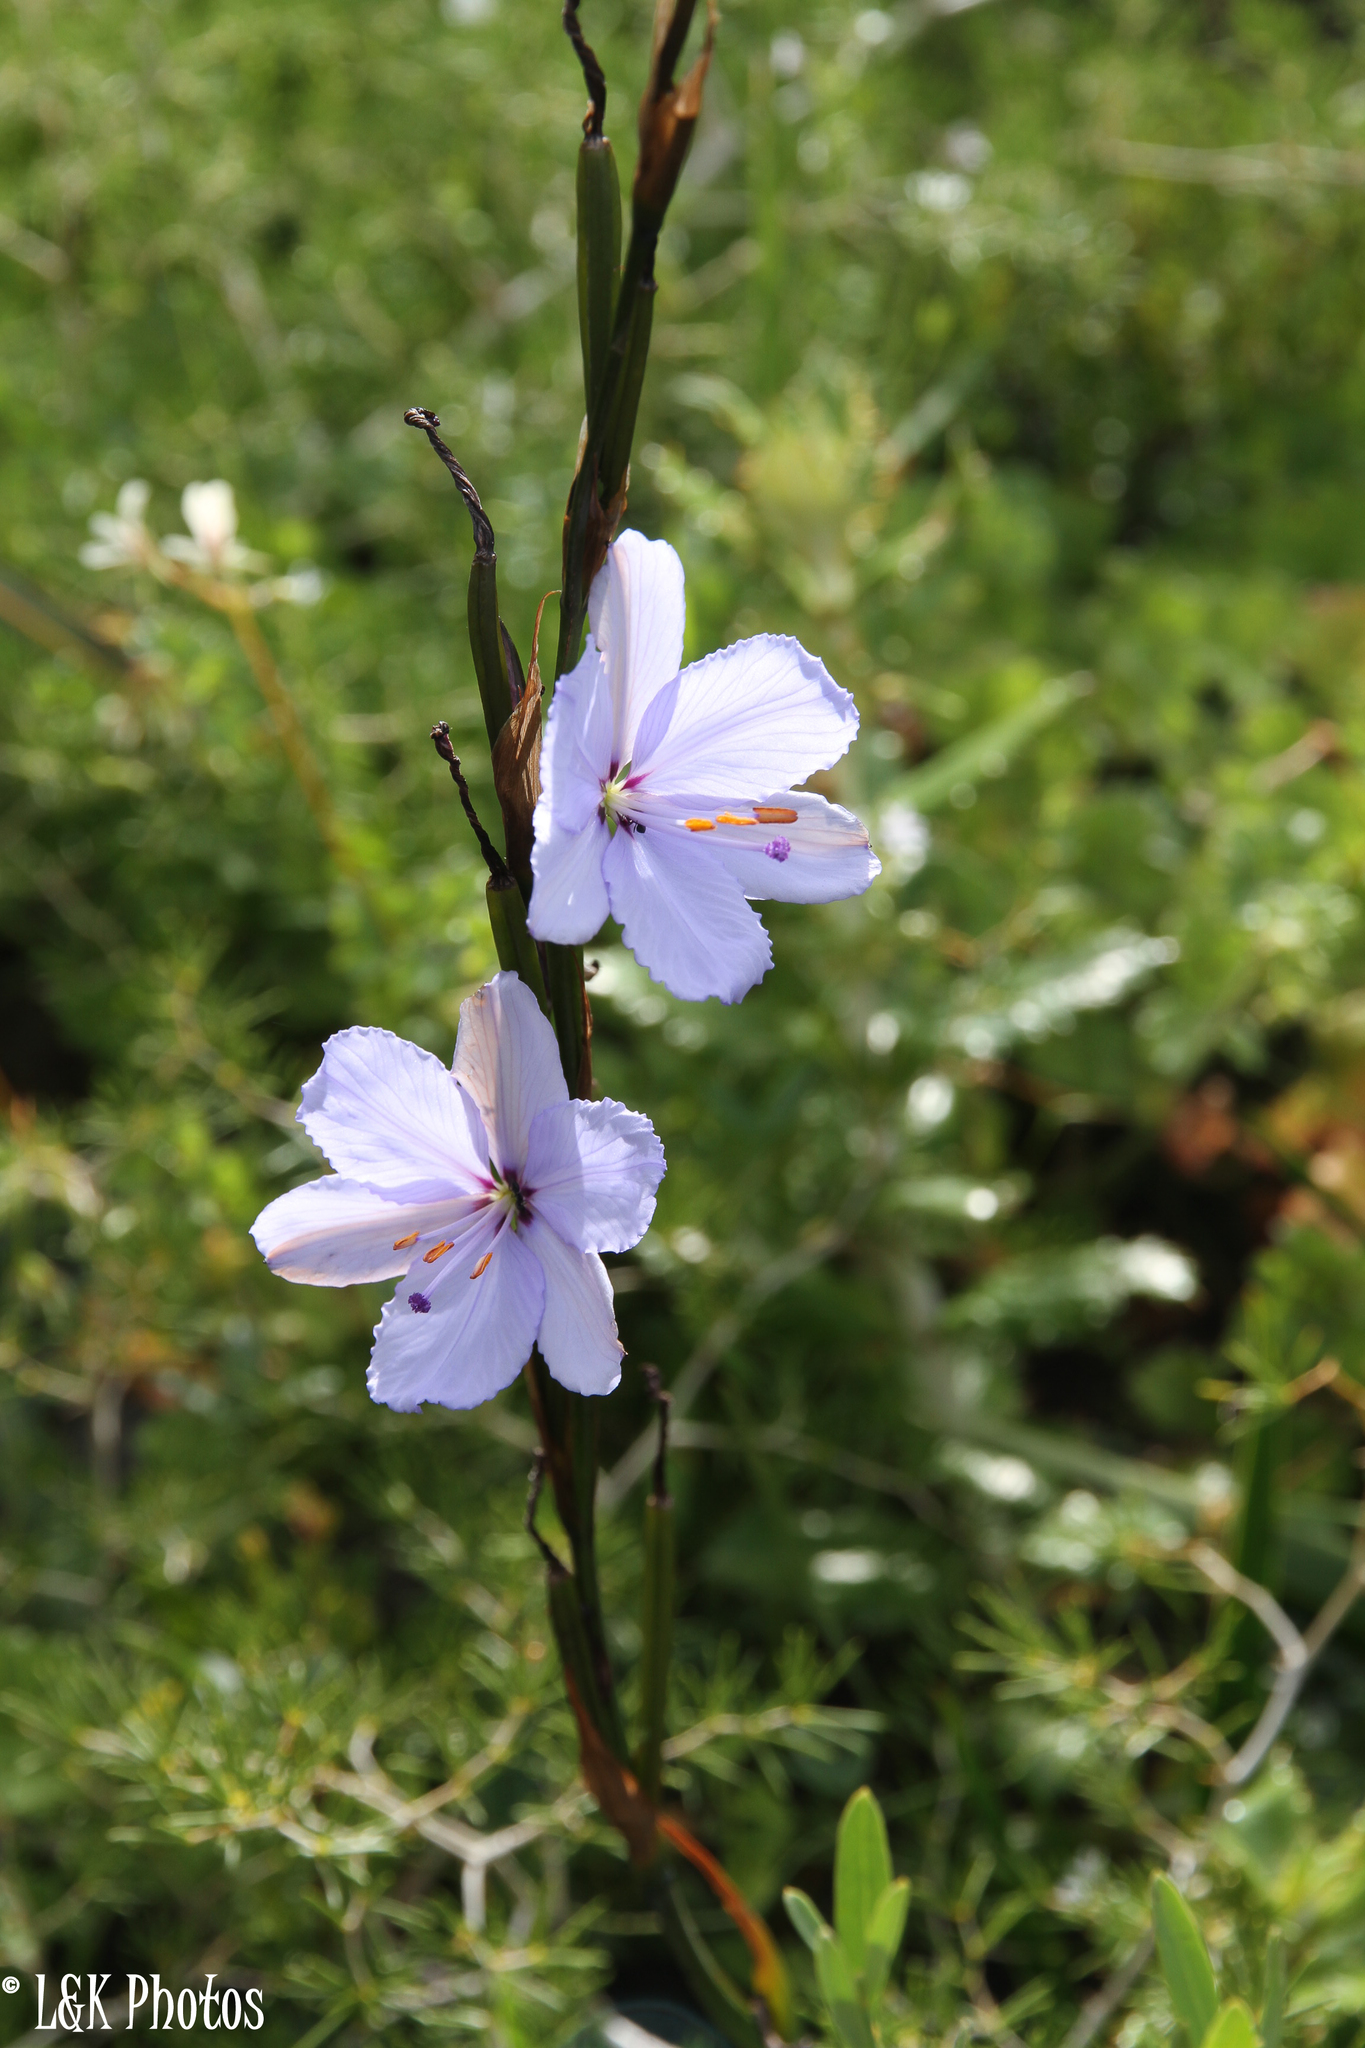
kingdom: Plantae
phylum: Tracheophyta
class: Liliopsida
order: Asparagales
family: Iridaceae
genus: Aristea
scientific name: Aristea spiralis
